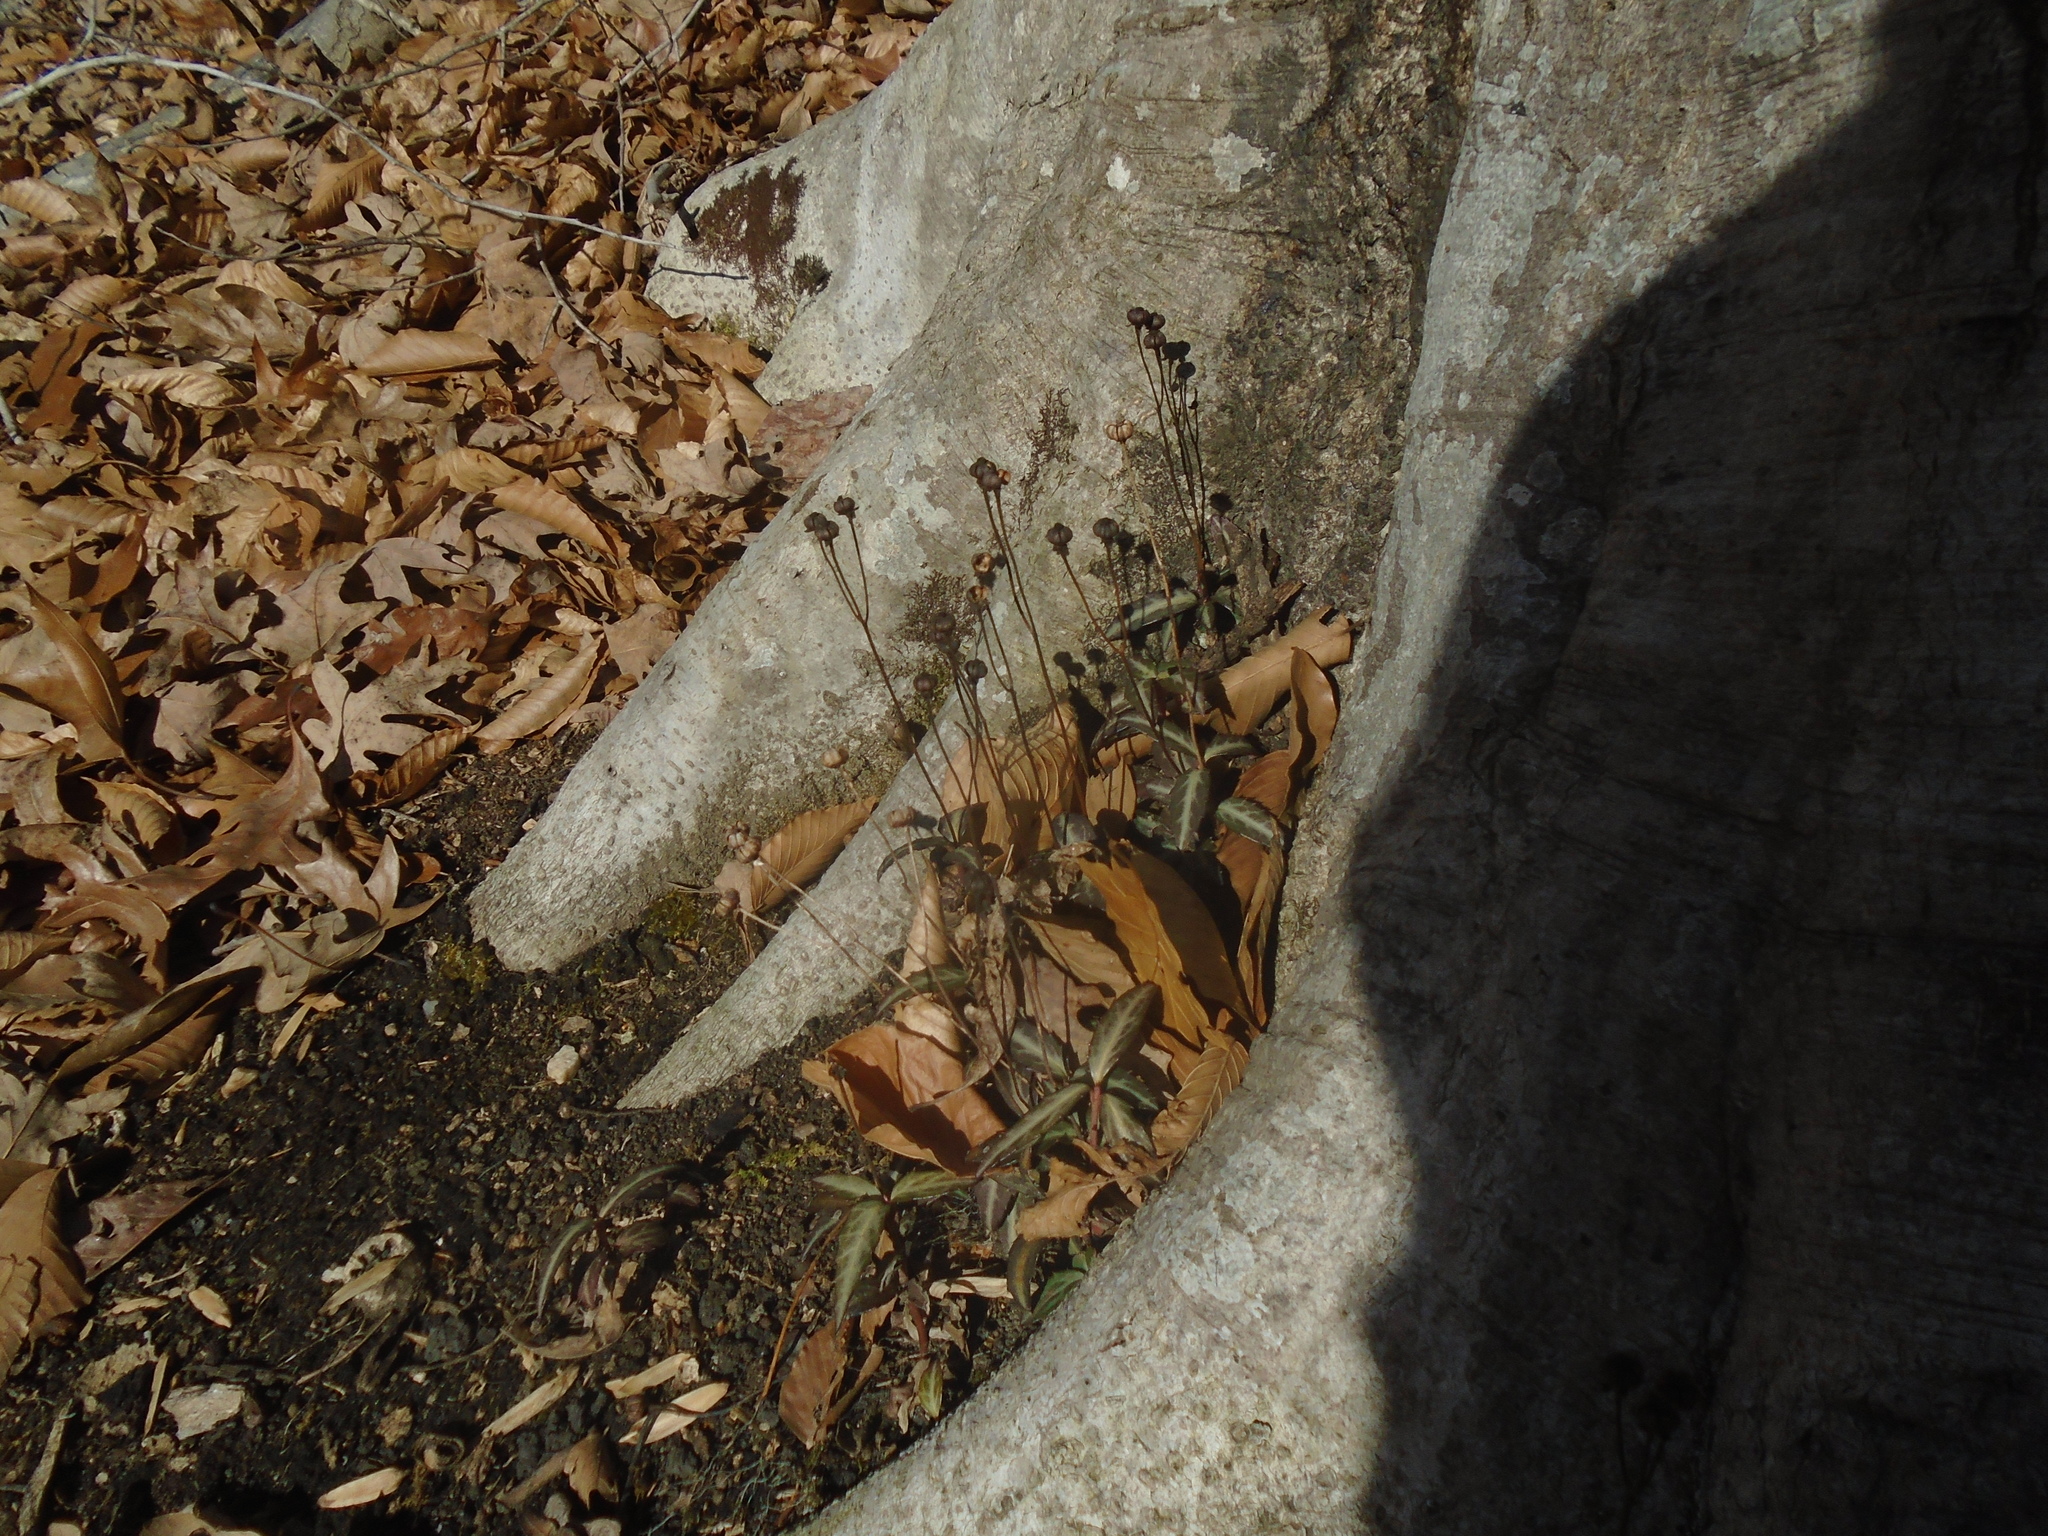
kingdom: Plantae
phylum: Tracheophyta
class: Magnoliopsida
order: Ericales
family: Ericaceae
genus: Chimaphila
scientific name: Chimaphila maculata
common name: Spotted pipsissewa
